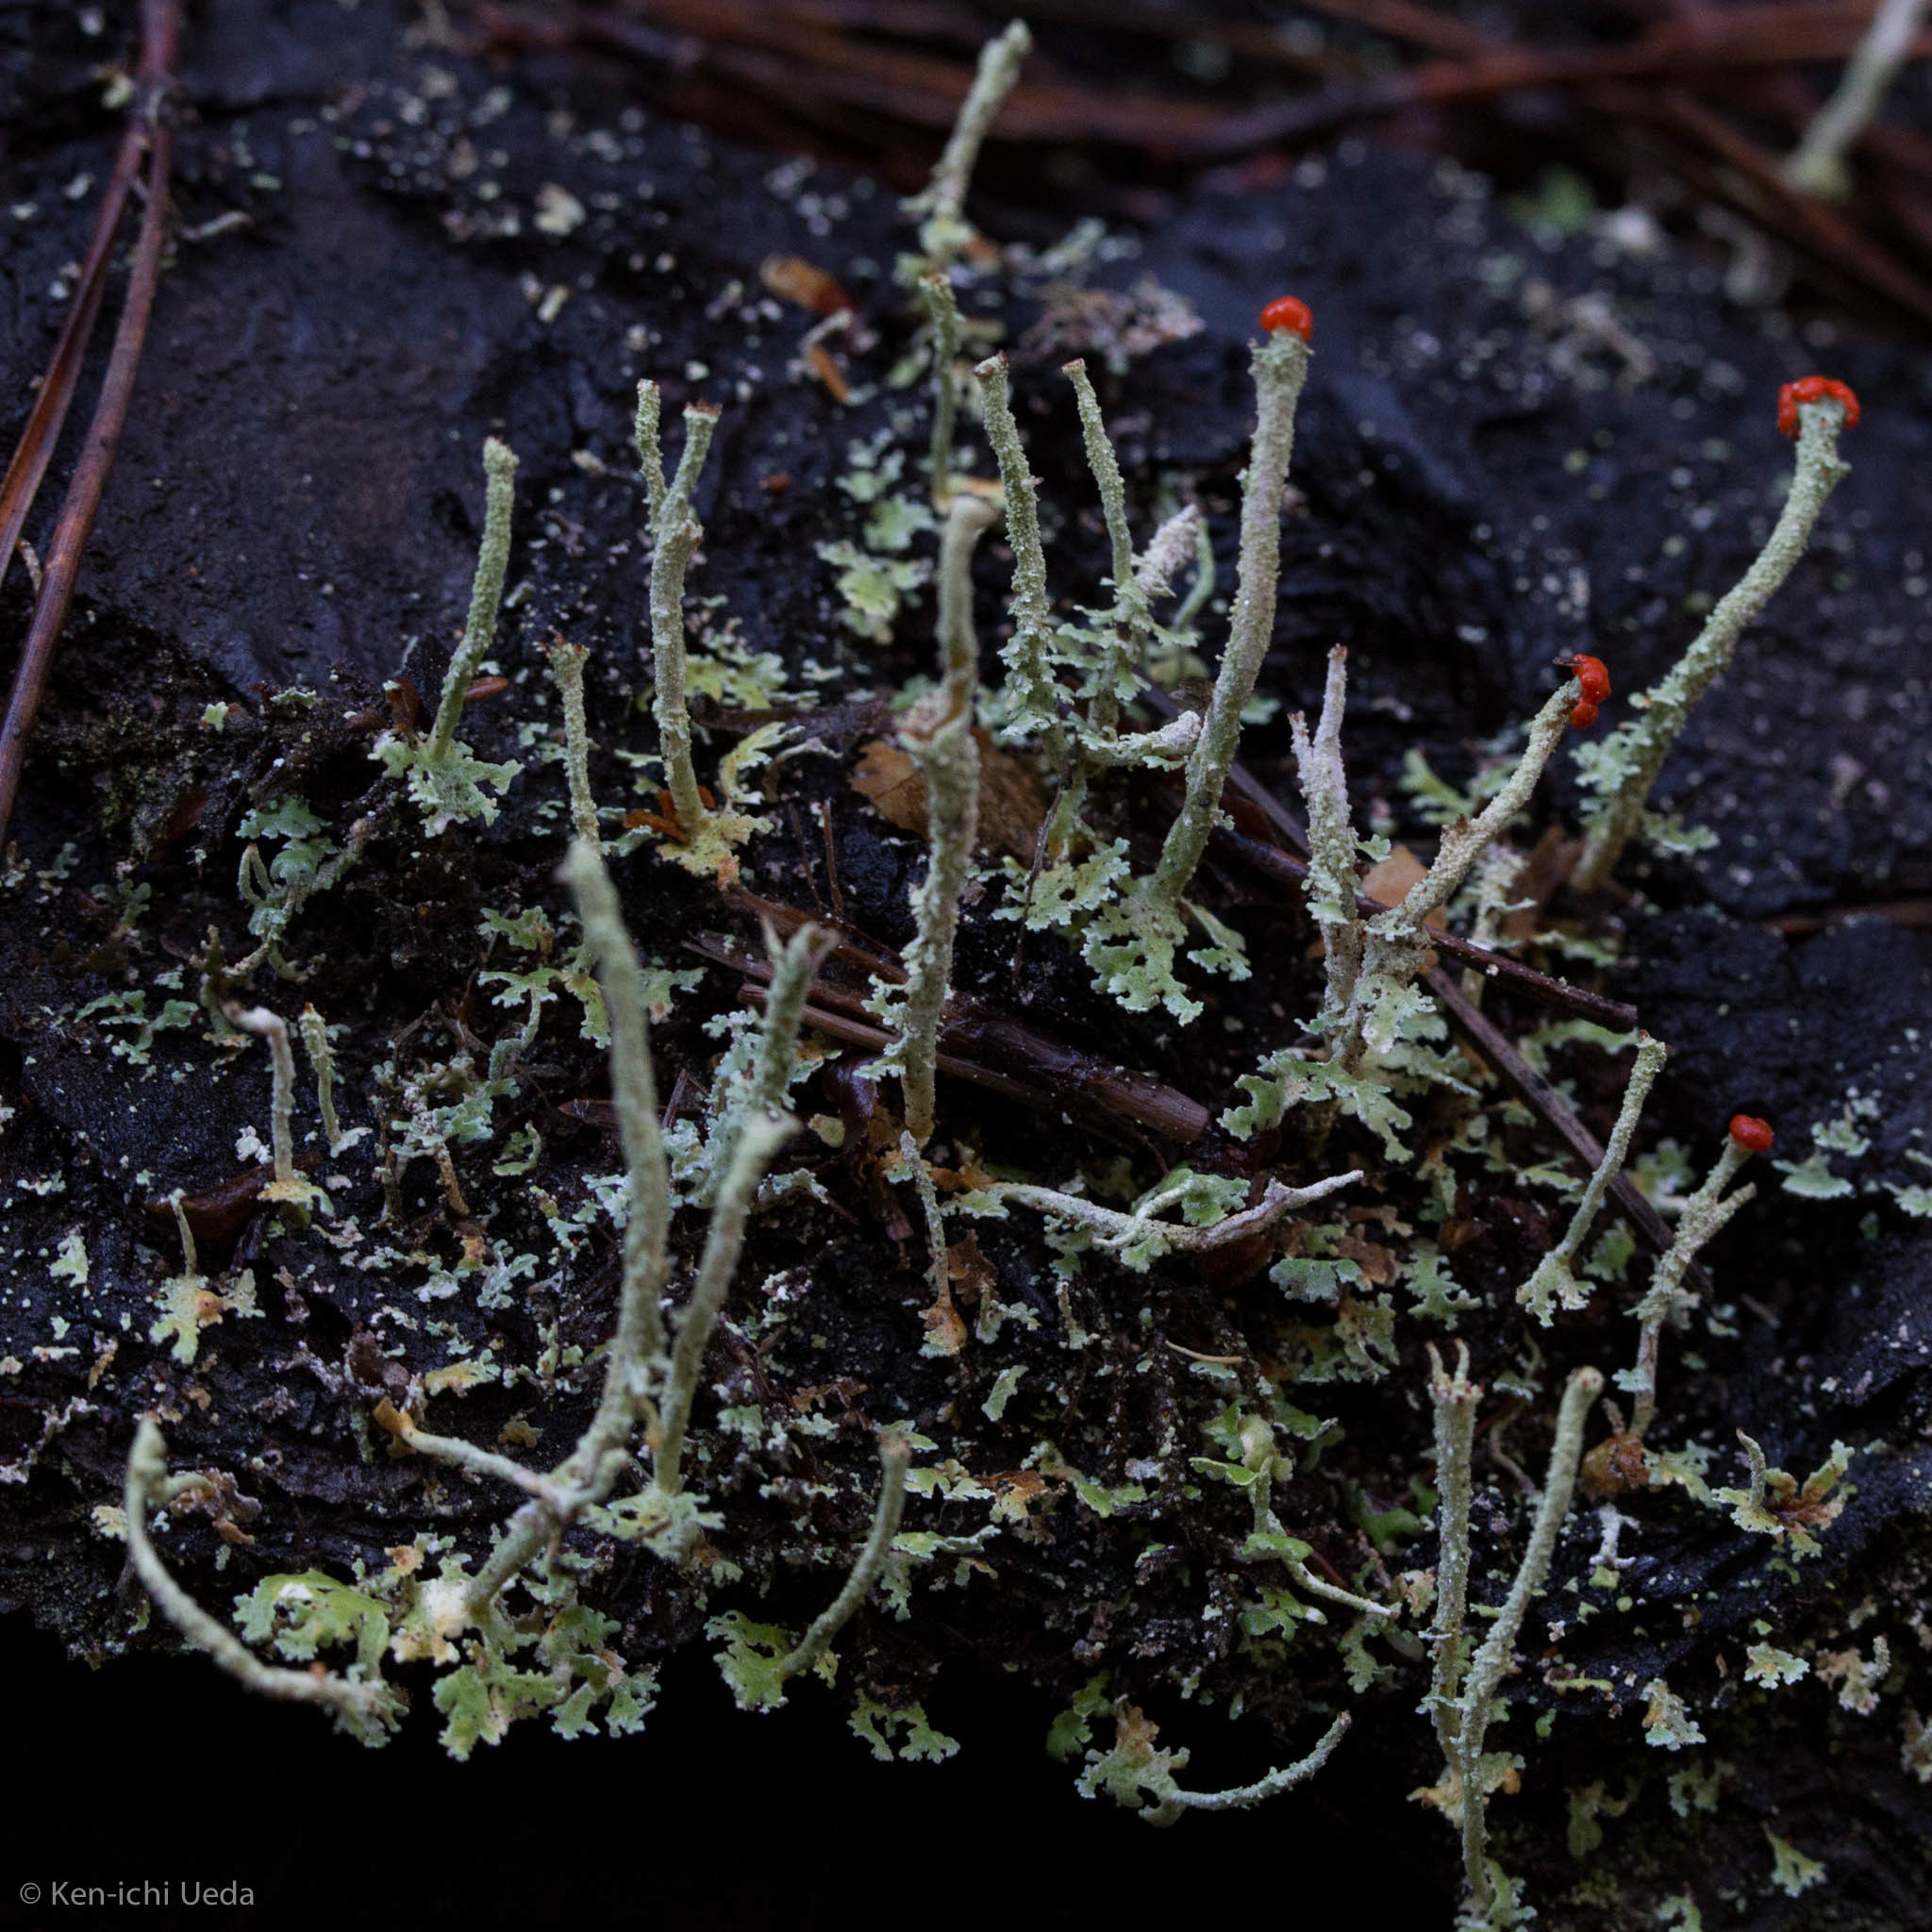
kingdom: Fungi
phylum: Ascomycota
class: Lecanoromycetes
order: Lecanorales
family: Cladoniaceae
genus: Cladonia
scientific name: Cladonia macilenta
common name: Lipstick powderhorn
